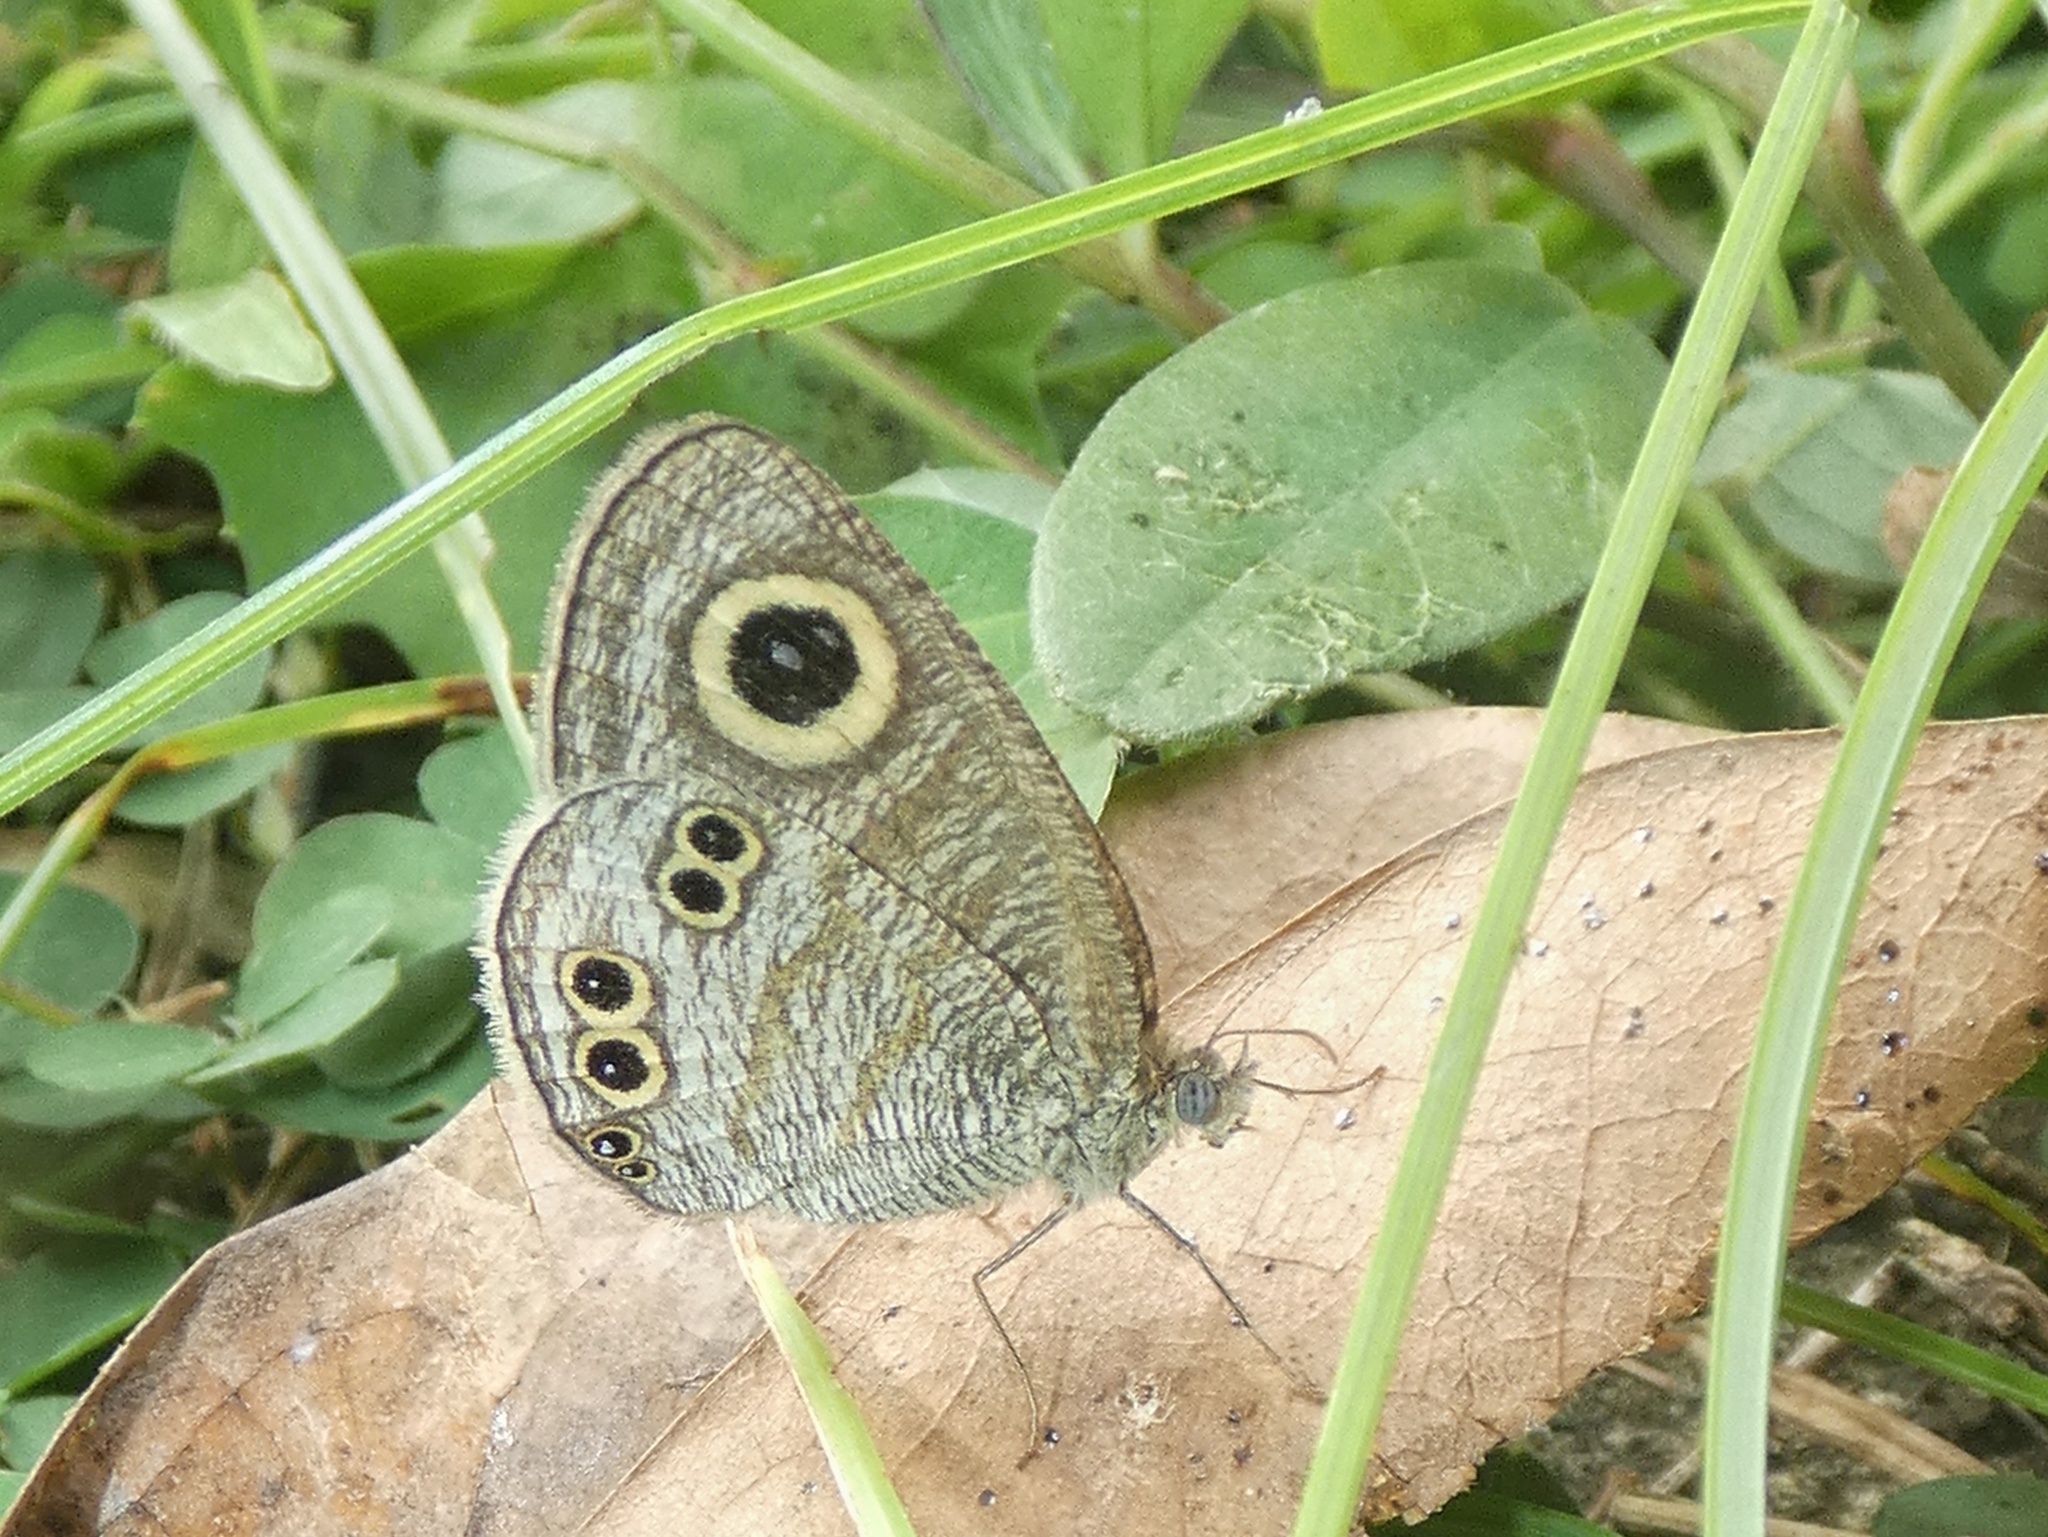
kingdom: Animalia
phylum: Arthropoda
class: Insecta
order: Lepidoptera
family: Nymphalidae
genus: Ypthima
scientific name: Ypthima stellera
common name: Philippine five-ring
